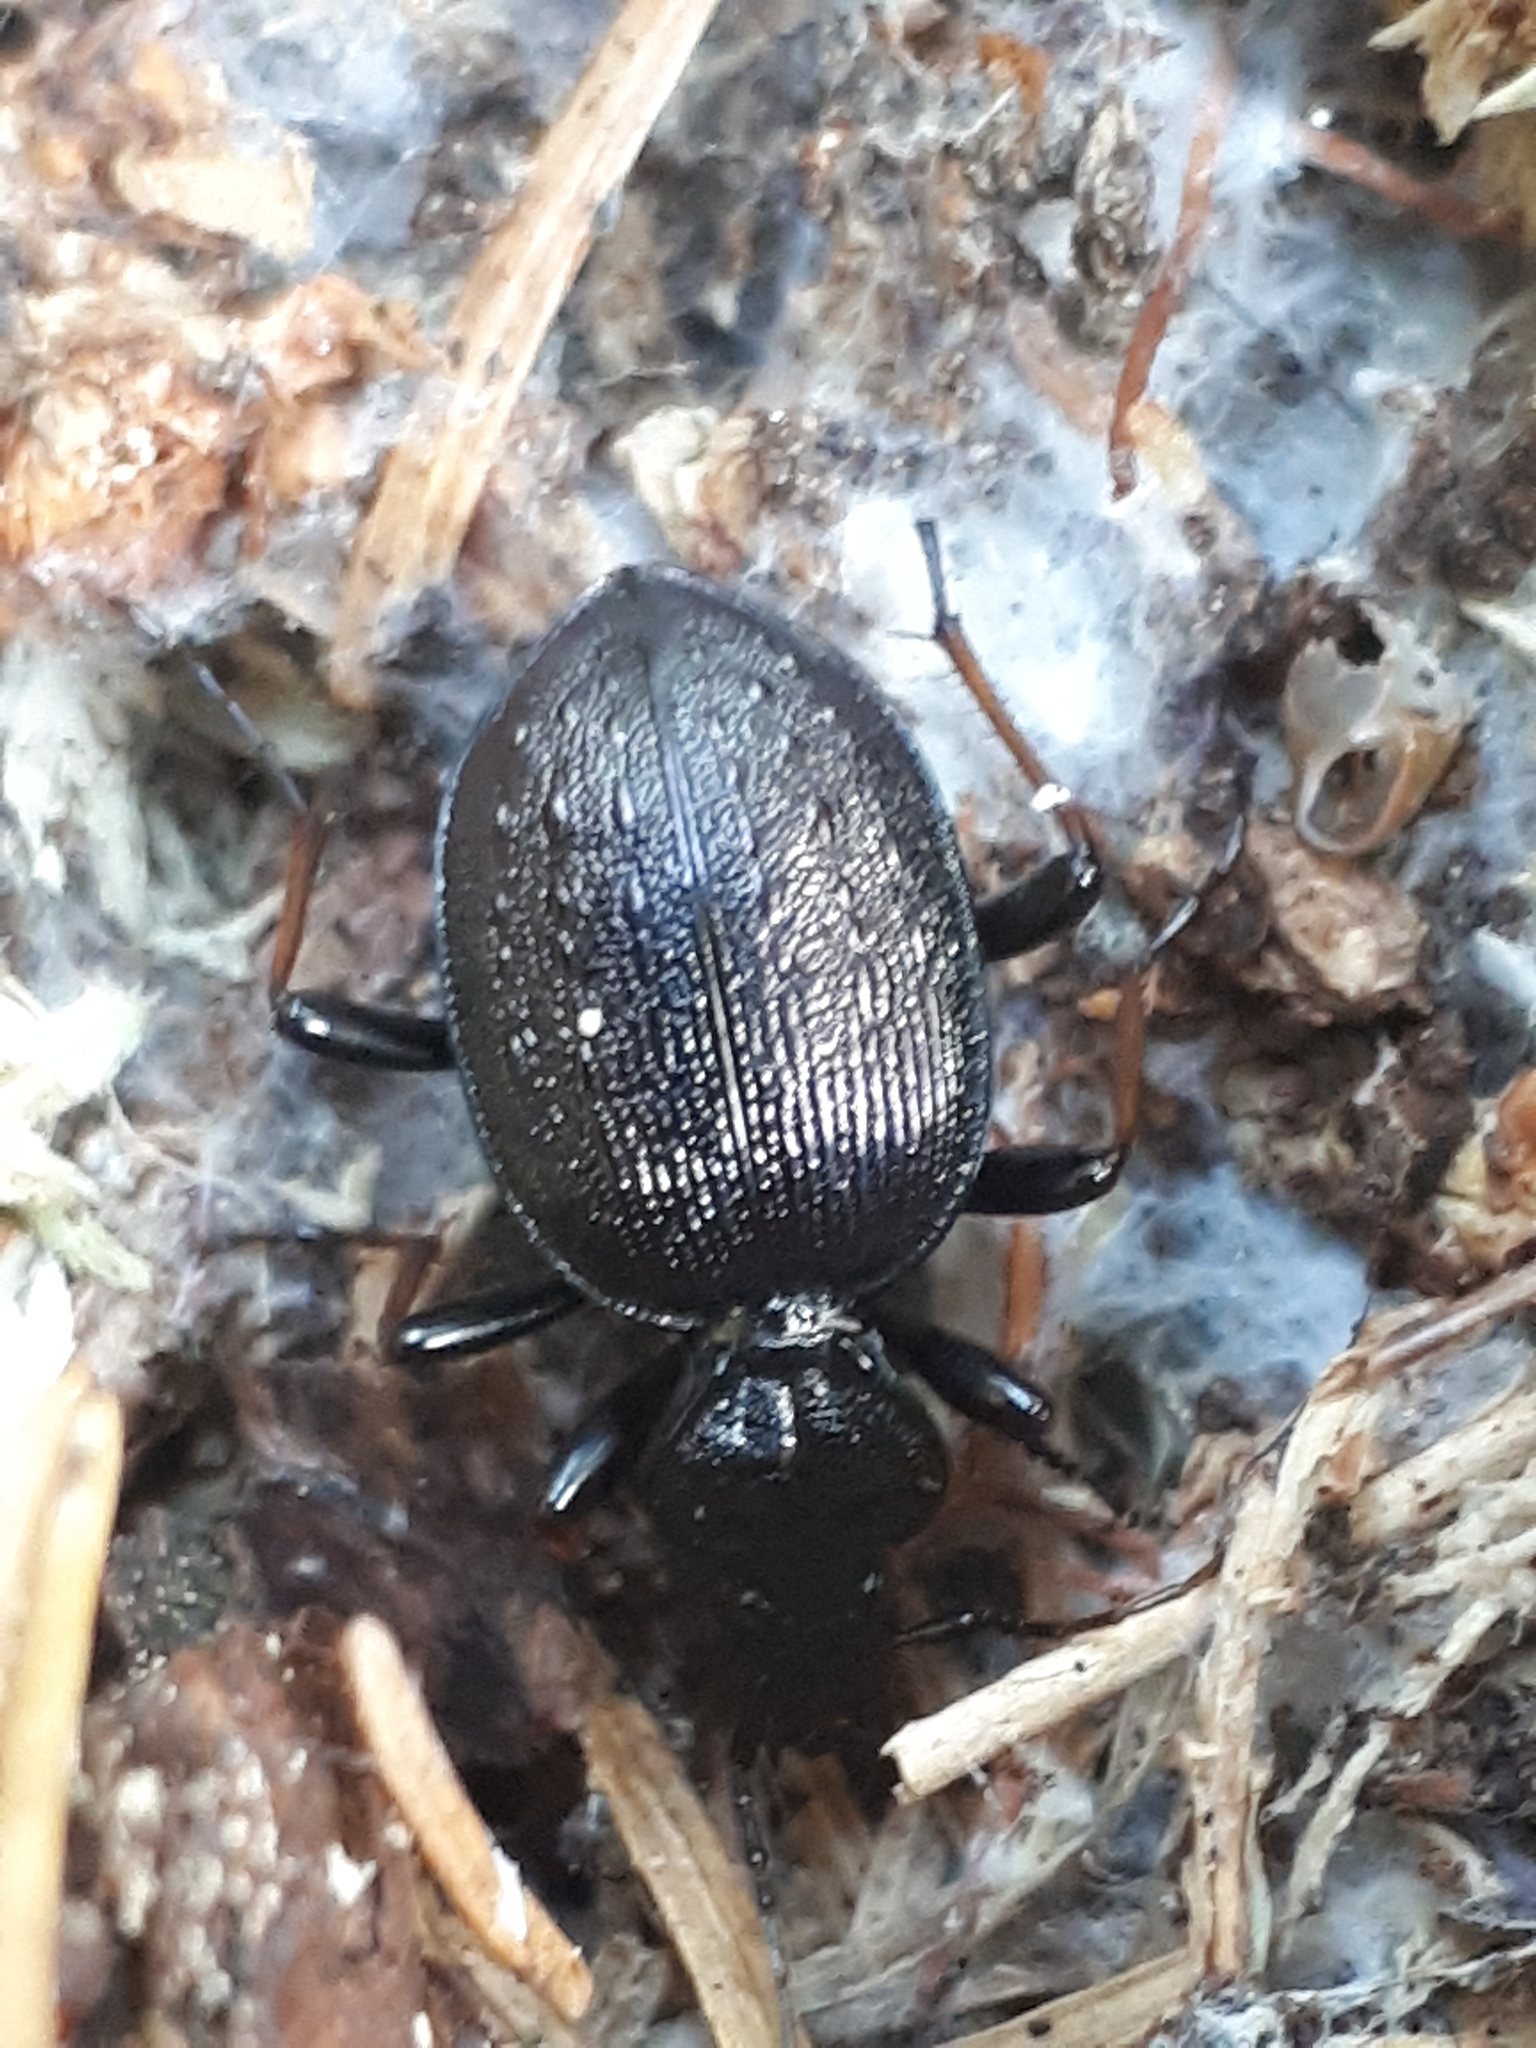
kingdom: Animalia
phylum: Arthropoda
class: Insecta
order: Coleoptera
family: Carabidae
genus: Cychrus
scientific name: Cychrus attenuatus
